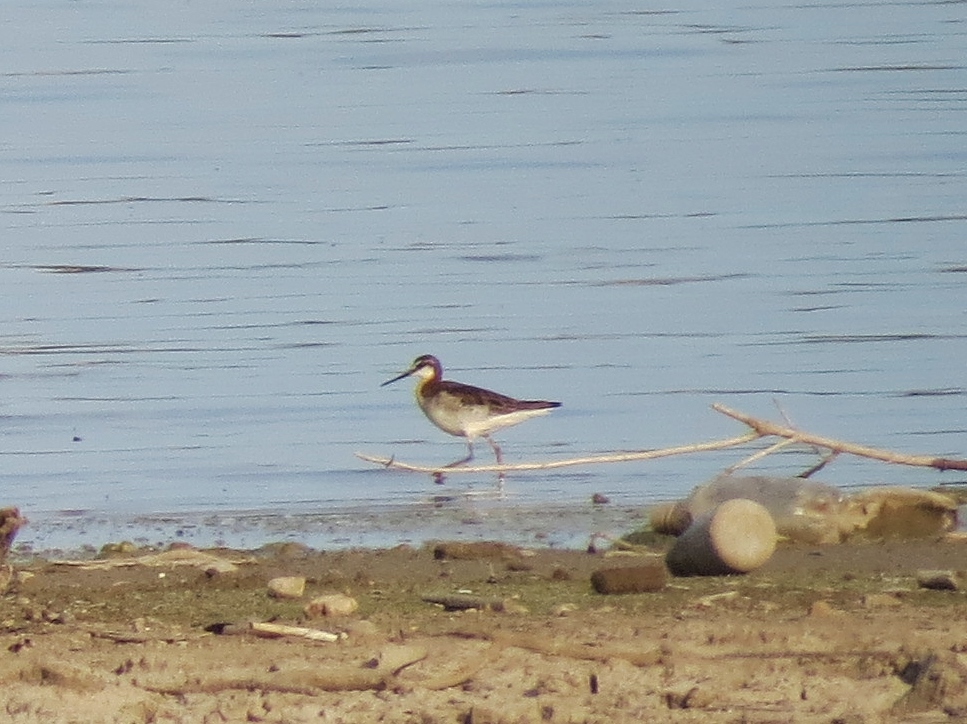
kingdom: Animalia
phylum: Chordata
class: Aves
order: Charadriiformes
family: Scolopacidae
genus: Phalaropus
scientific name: Phalaropus tricolor
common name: Wilson's phalarope
